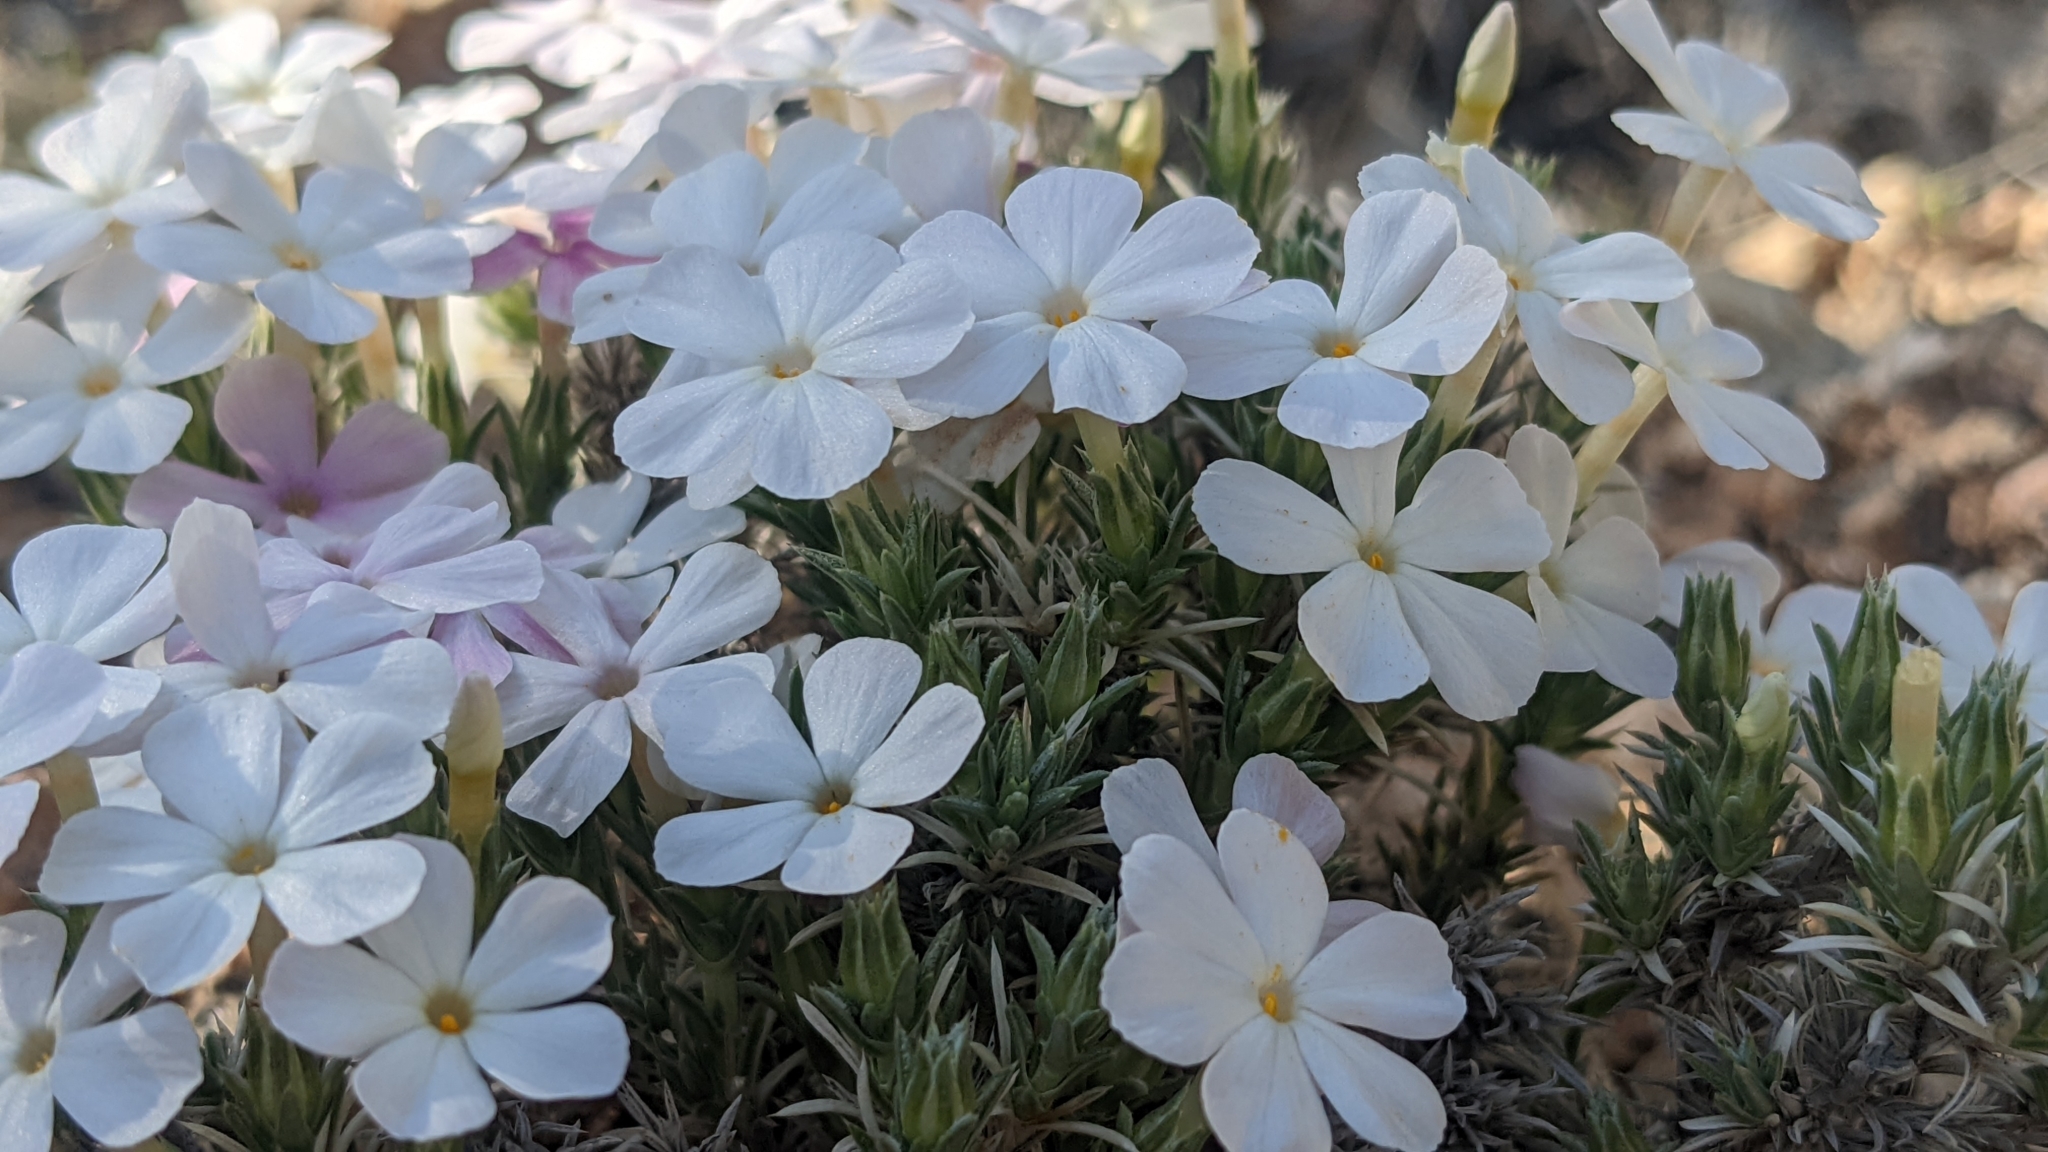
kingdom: Plantae
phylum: Tracheophyta
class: Magnoliopsida
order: Ericales
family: Polemoniaceae
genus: Phlox
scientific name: Phlox austromontana
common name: Desert phlox
